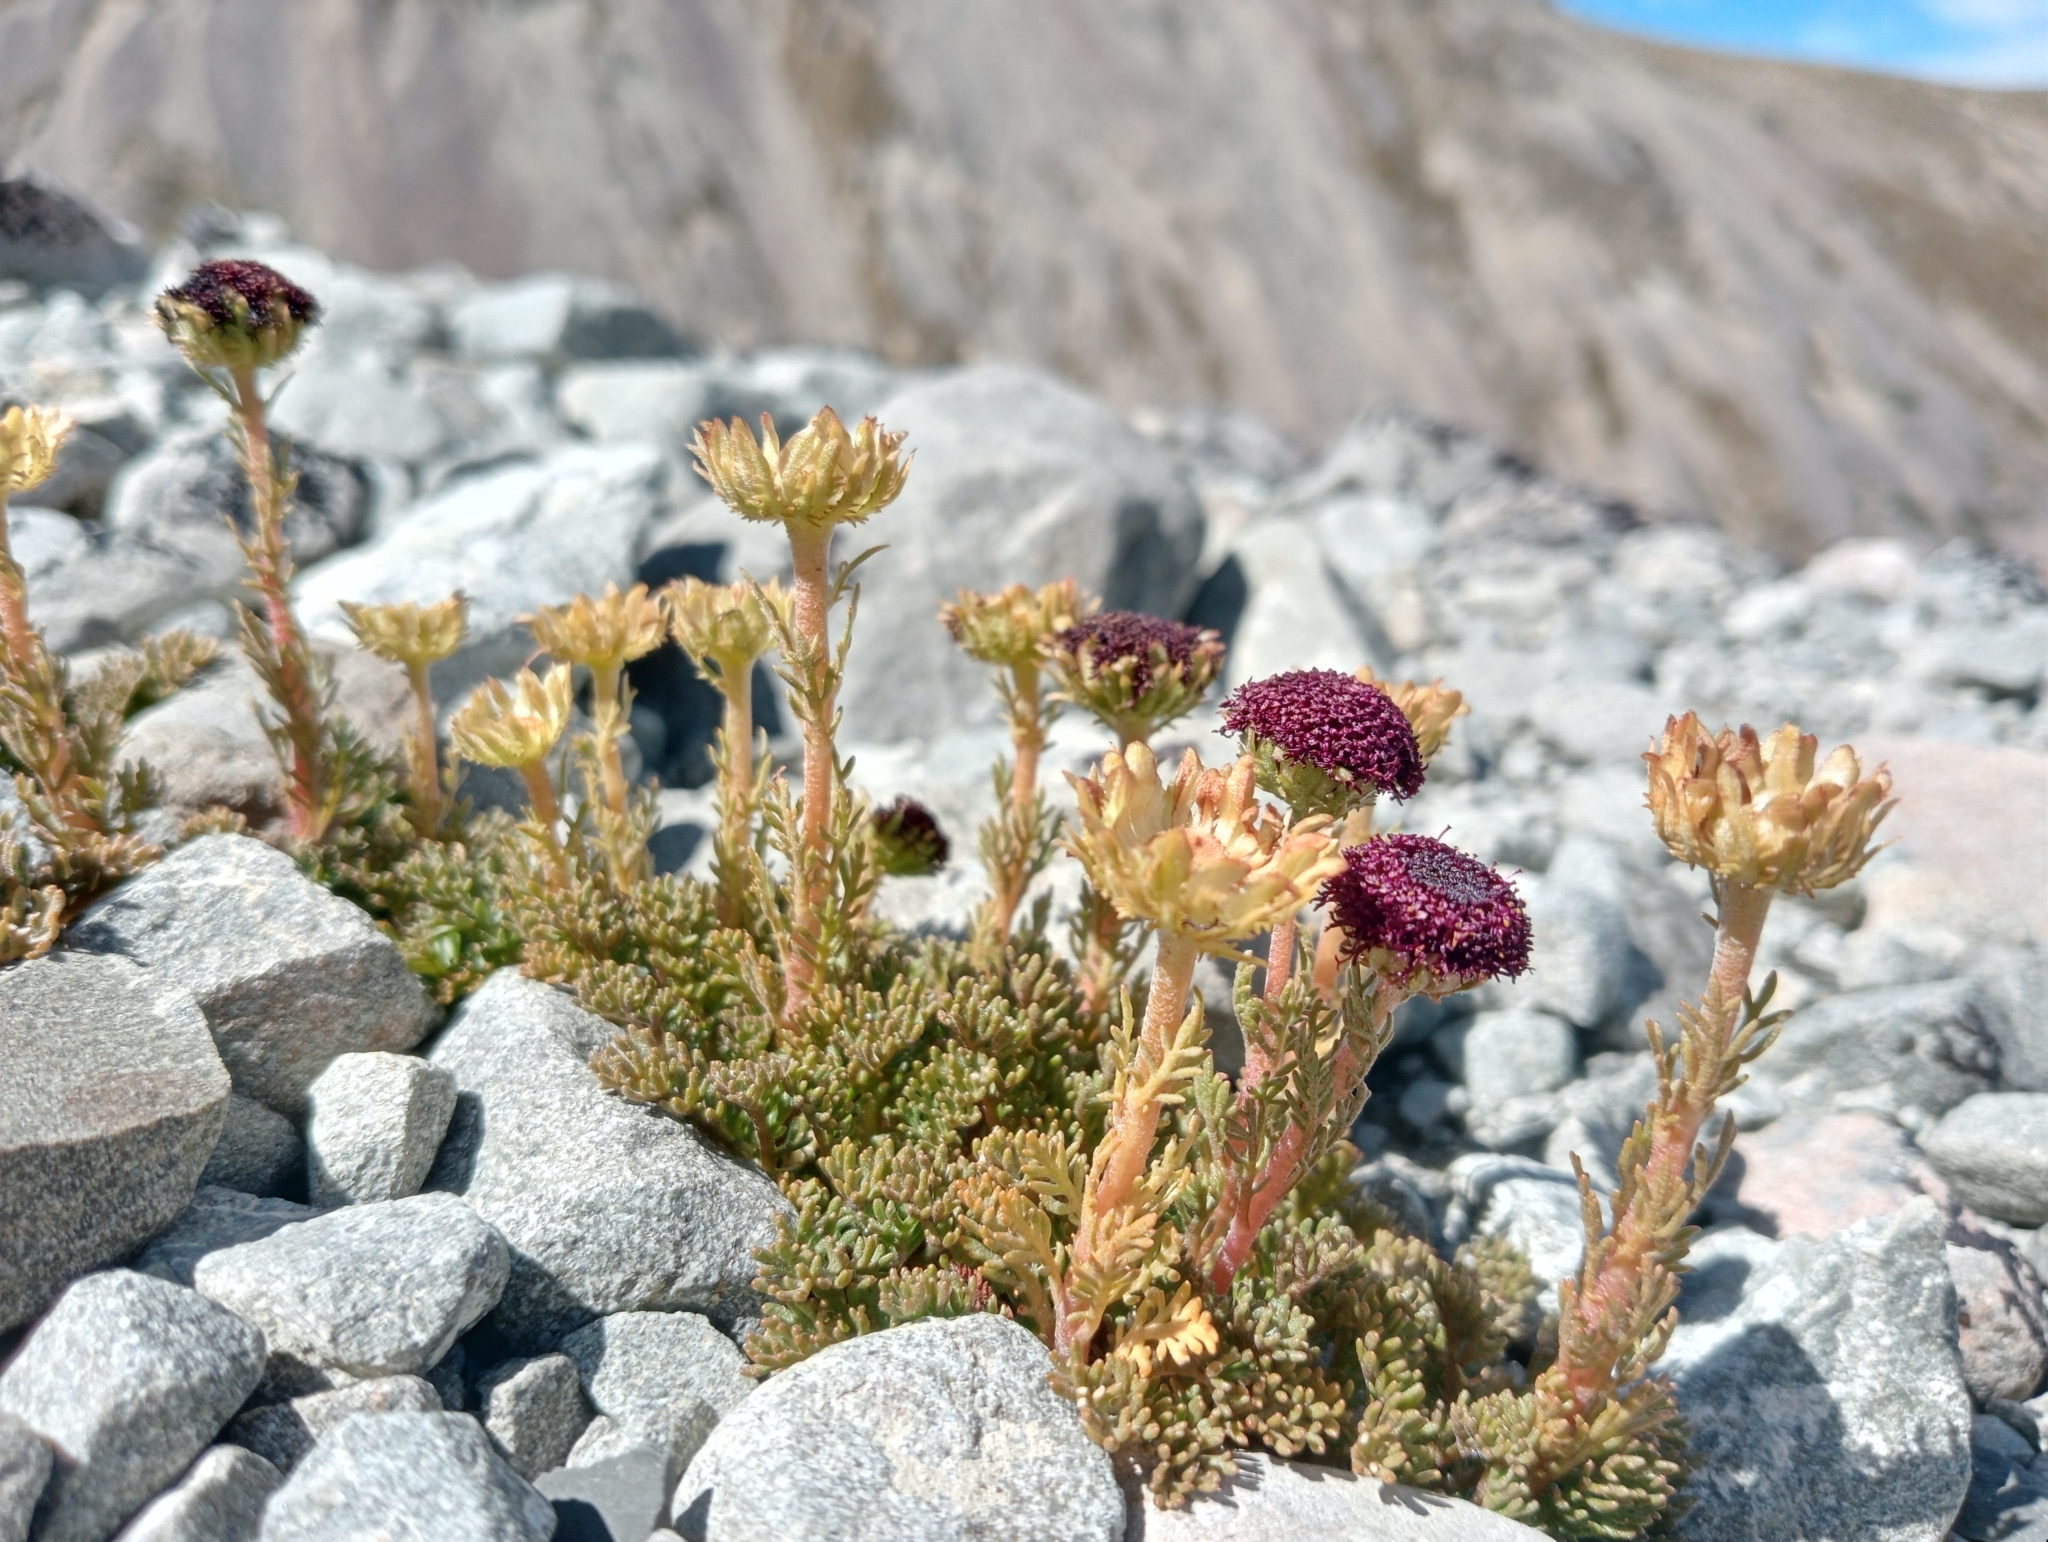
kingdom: Plantae
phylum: Tracheophyta
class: Magnoliopsida
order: Asterales
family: Asteraceae
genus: Leptinella
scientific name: Leptinella atrata
